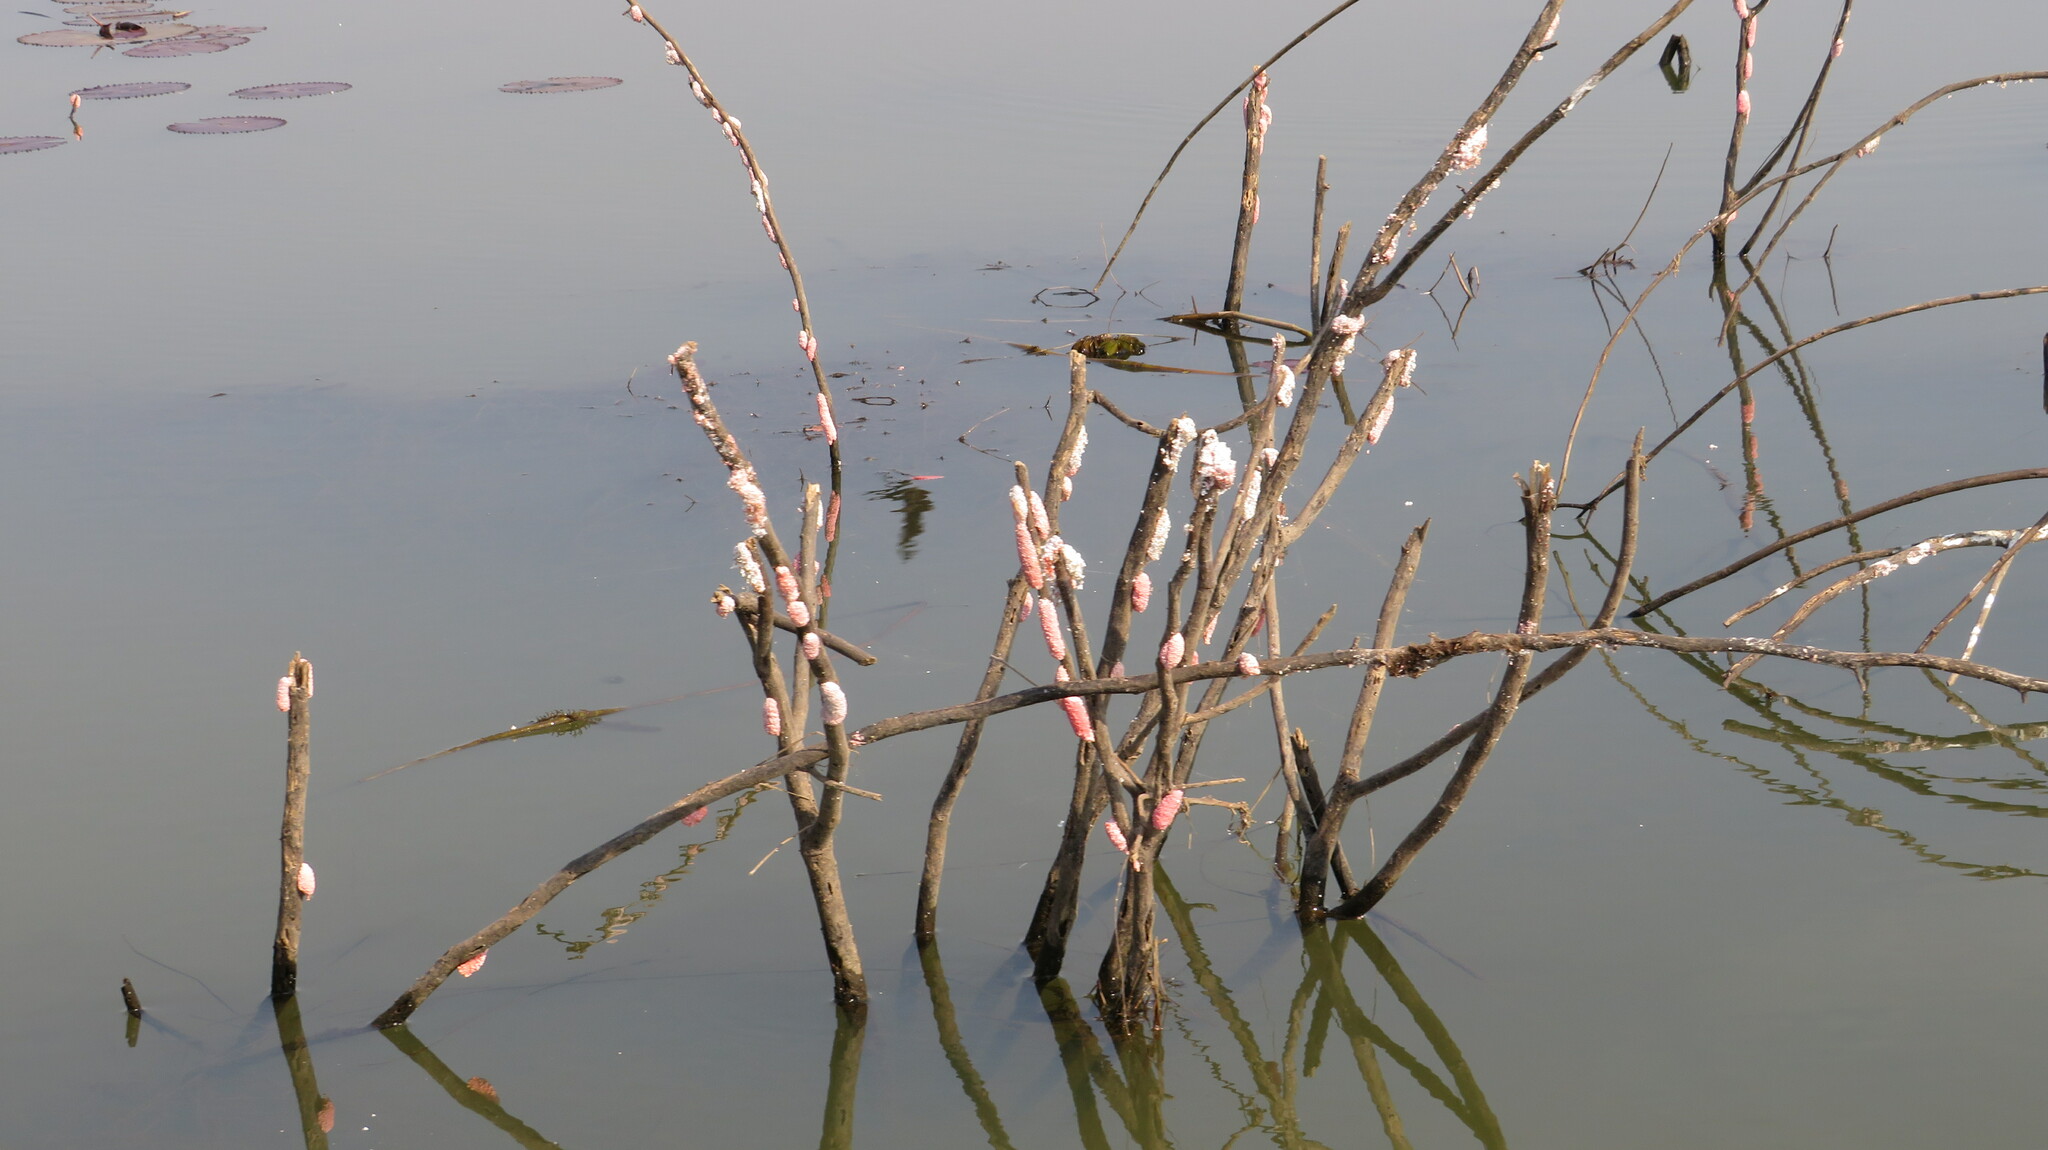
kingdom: Animalia
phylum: Mollusca
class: Gastropoda
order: Architaenioglossa
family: Ampullariidae
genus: Pomacea
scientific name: Pomacea canaliculata
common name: Channeled applesnail
